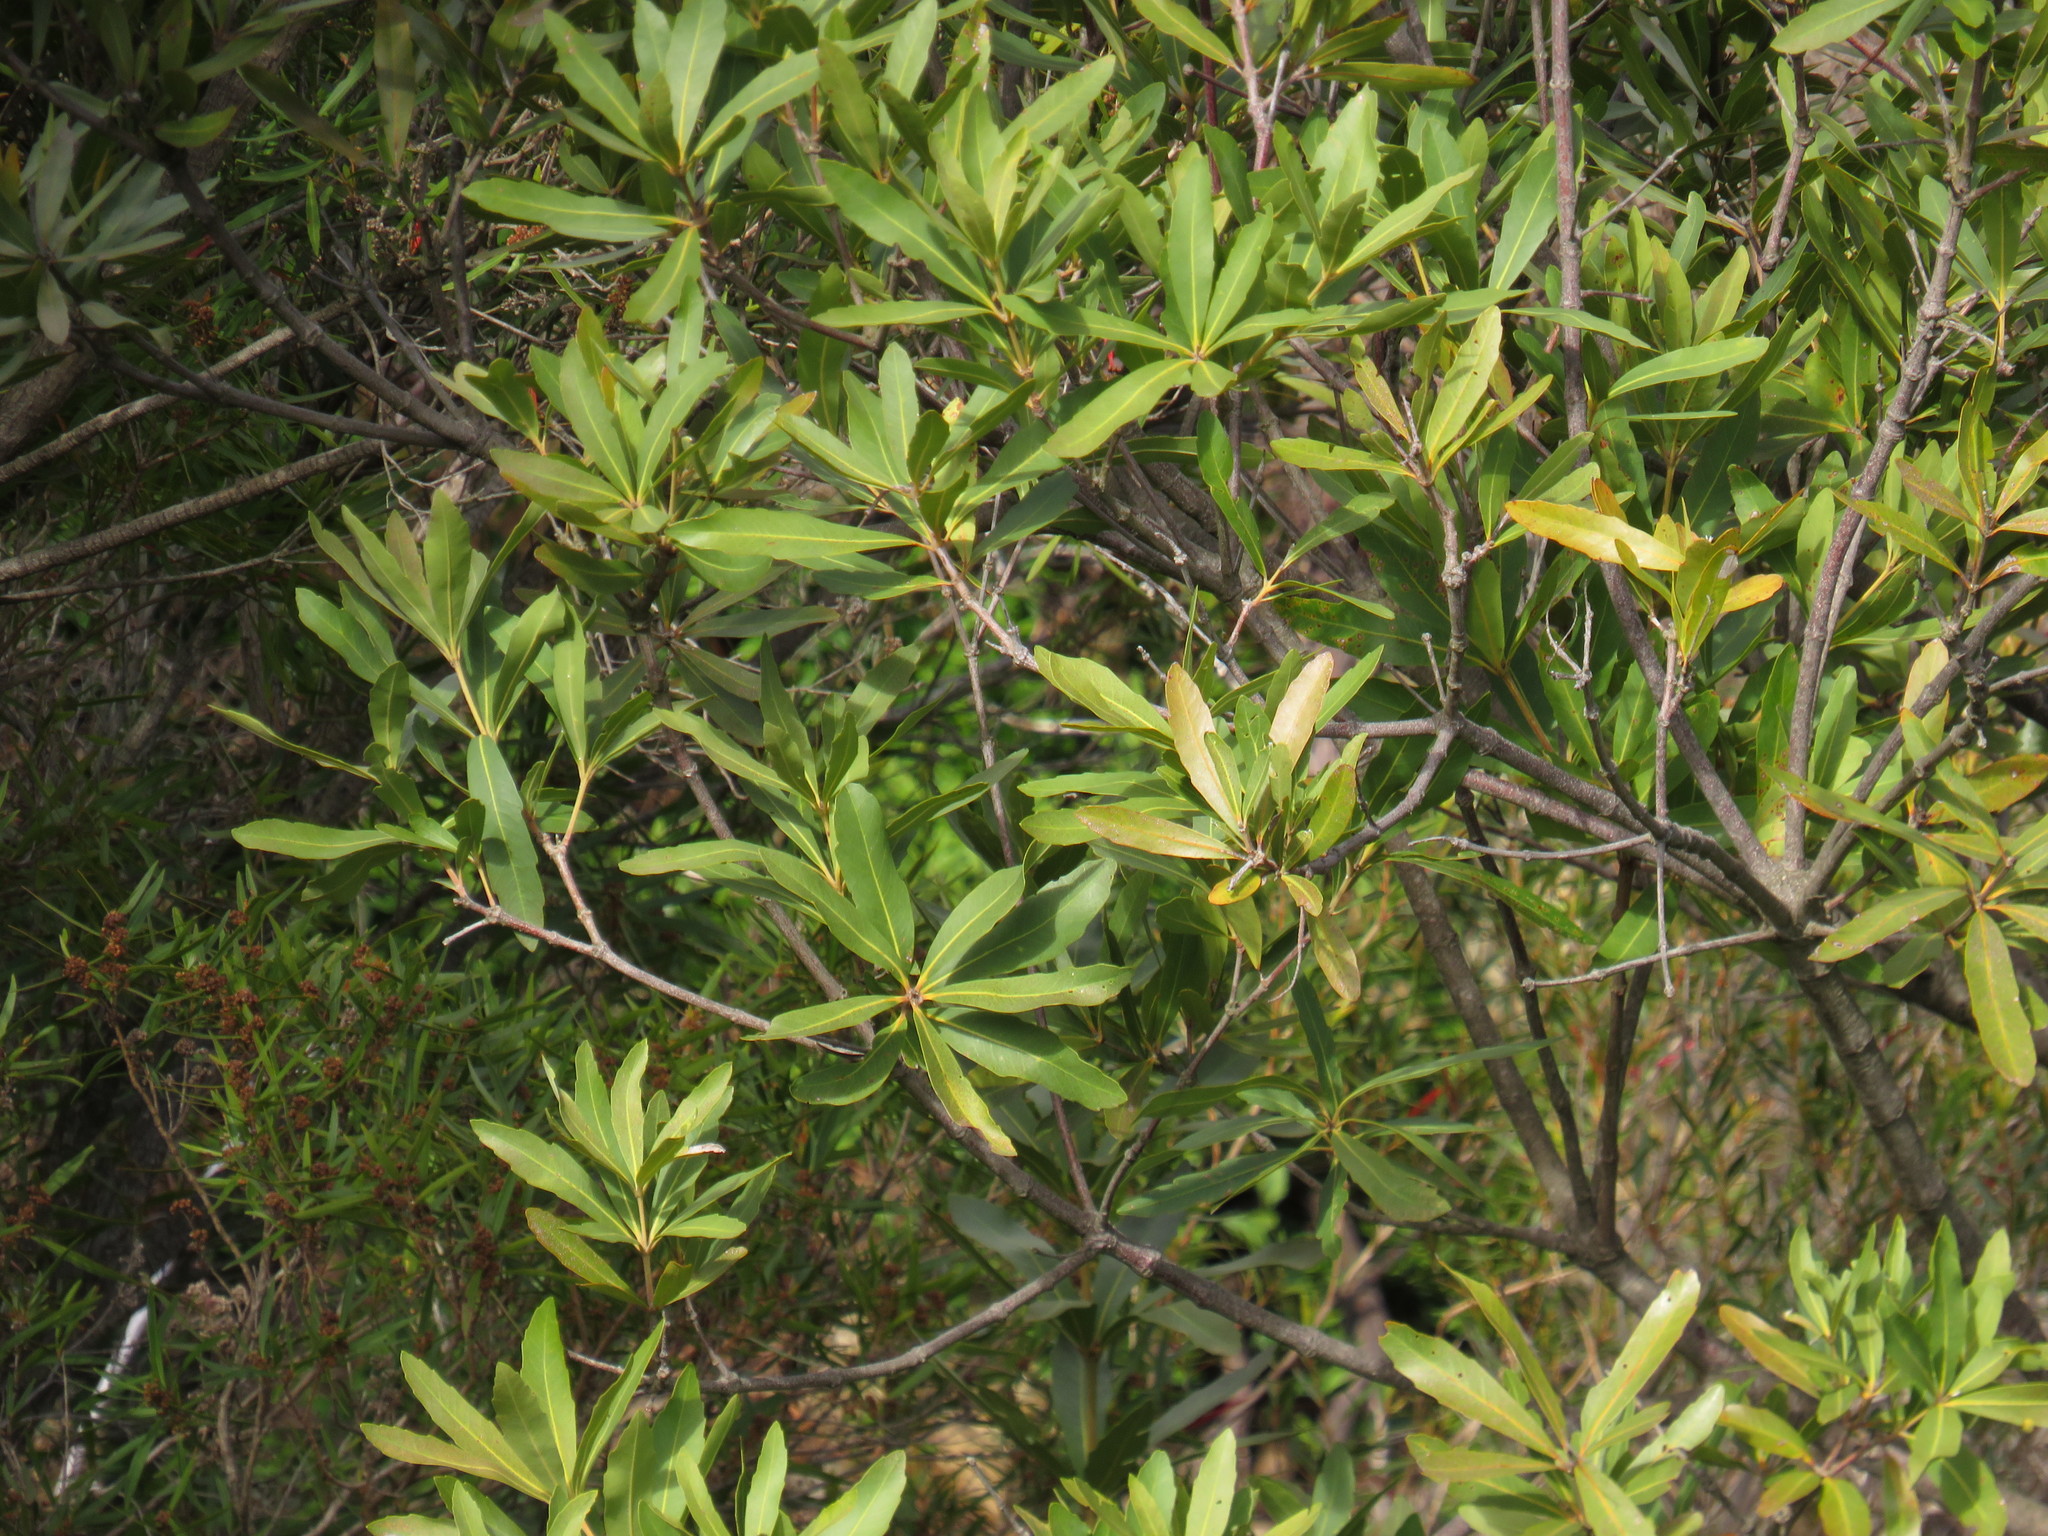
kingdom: Plantae
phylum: Tracheophyta
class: Magnoliopsida
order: Proteales
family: Proteaceae
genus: Brabejum
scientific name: Brabejum stellatifolium
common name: Wild almond
